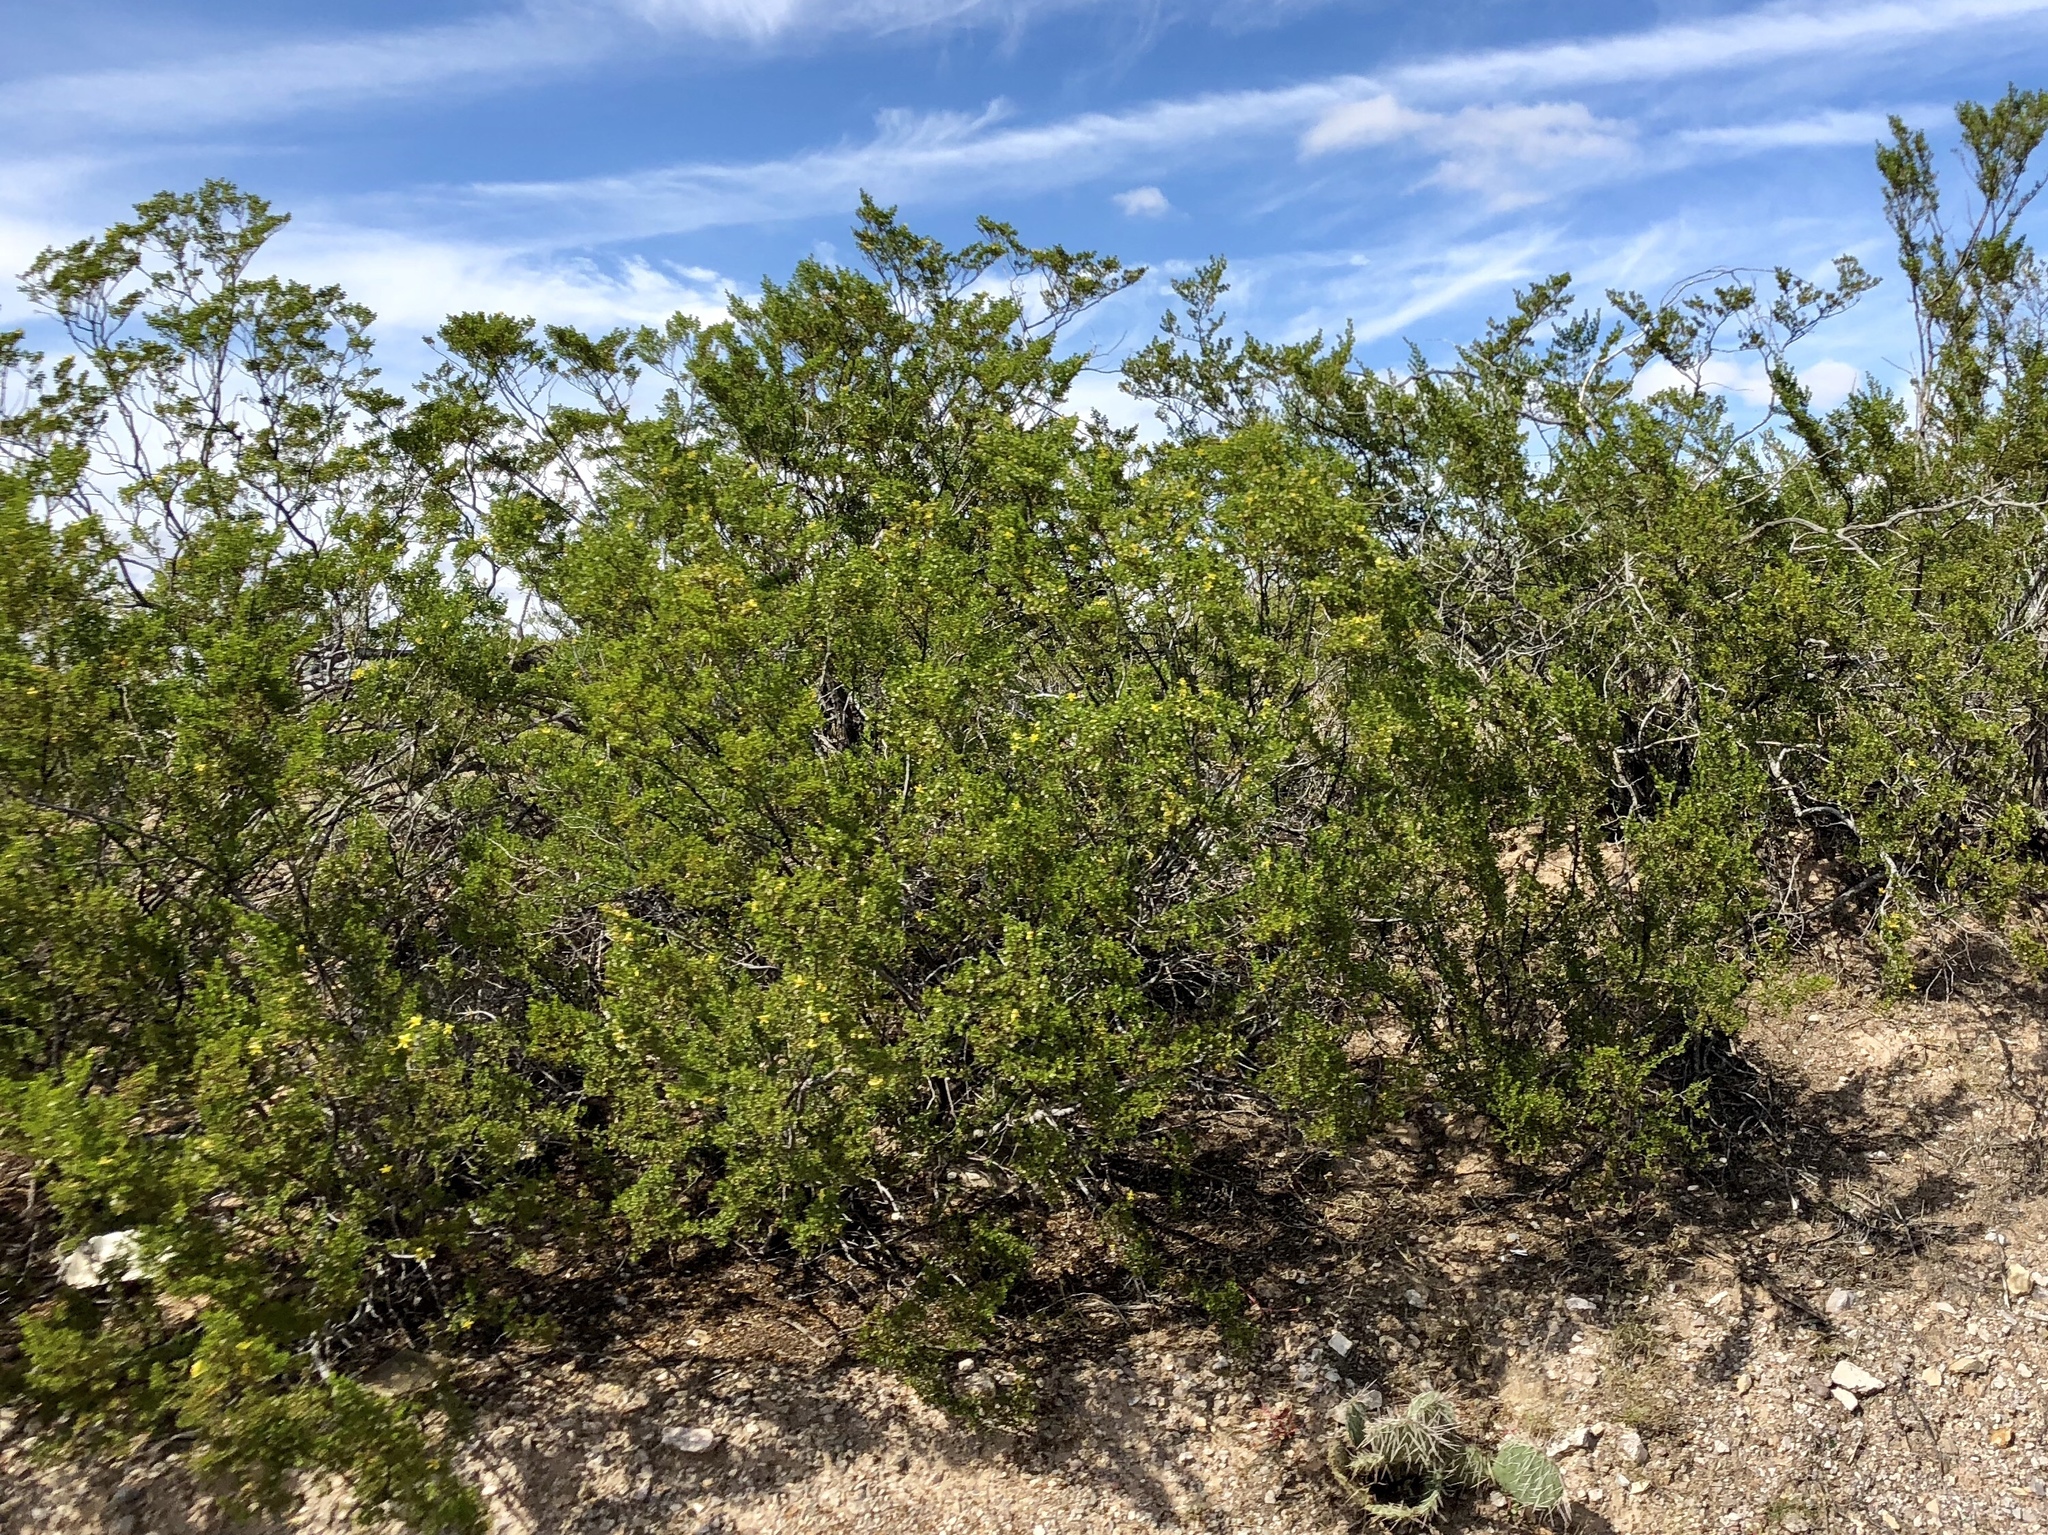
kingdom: Plantae
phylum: Tracheophyta
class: Magnoliopsida
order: Zygophyllales
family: Zygophyllaceae
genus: Larrea
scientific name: Larrea tridentata
